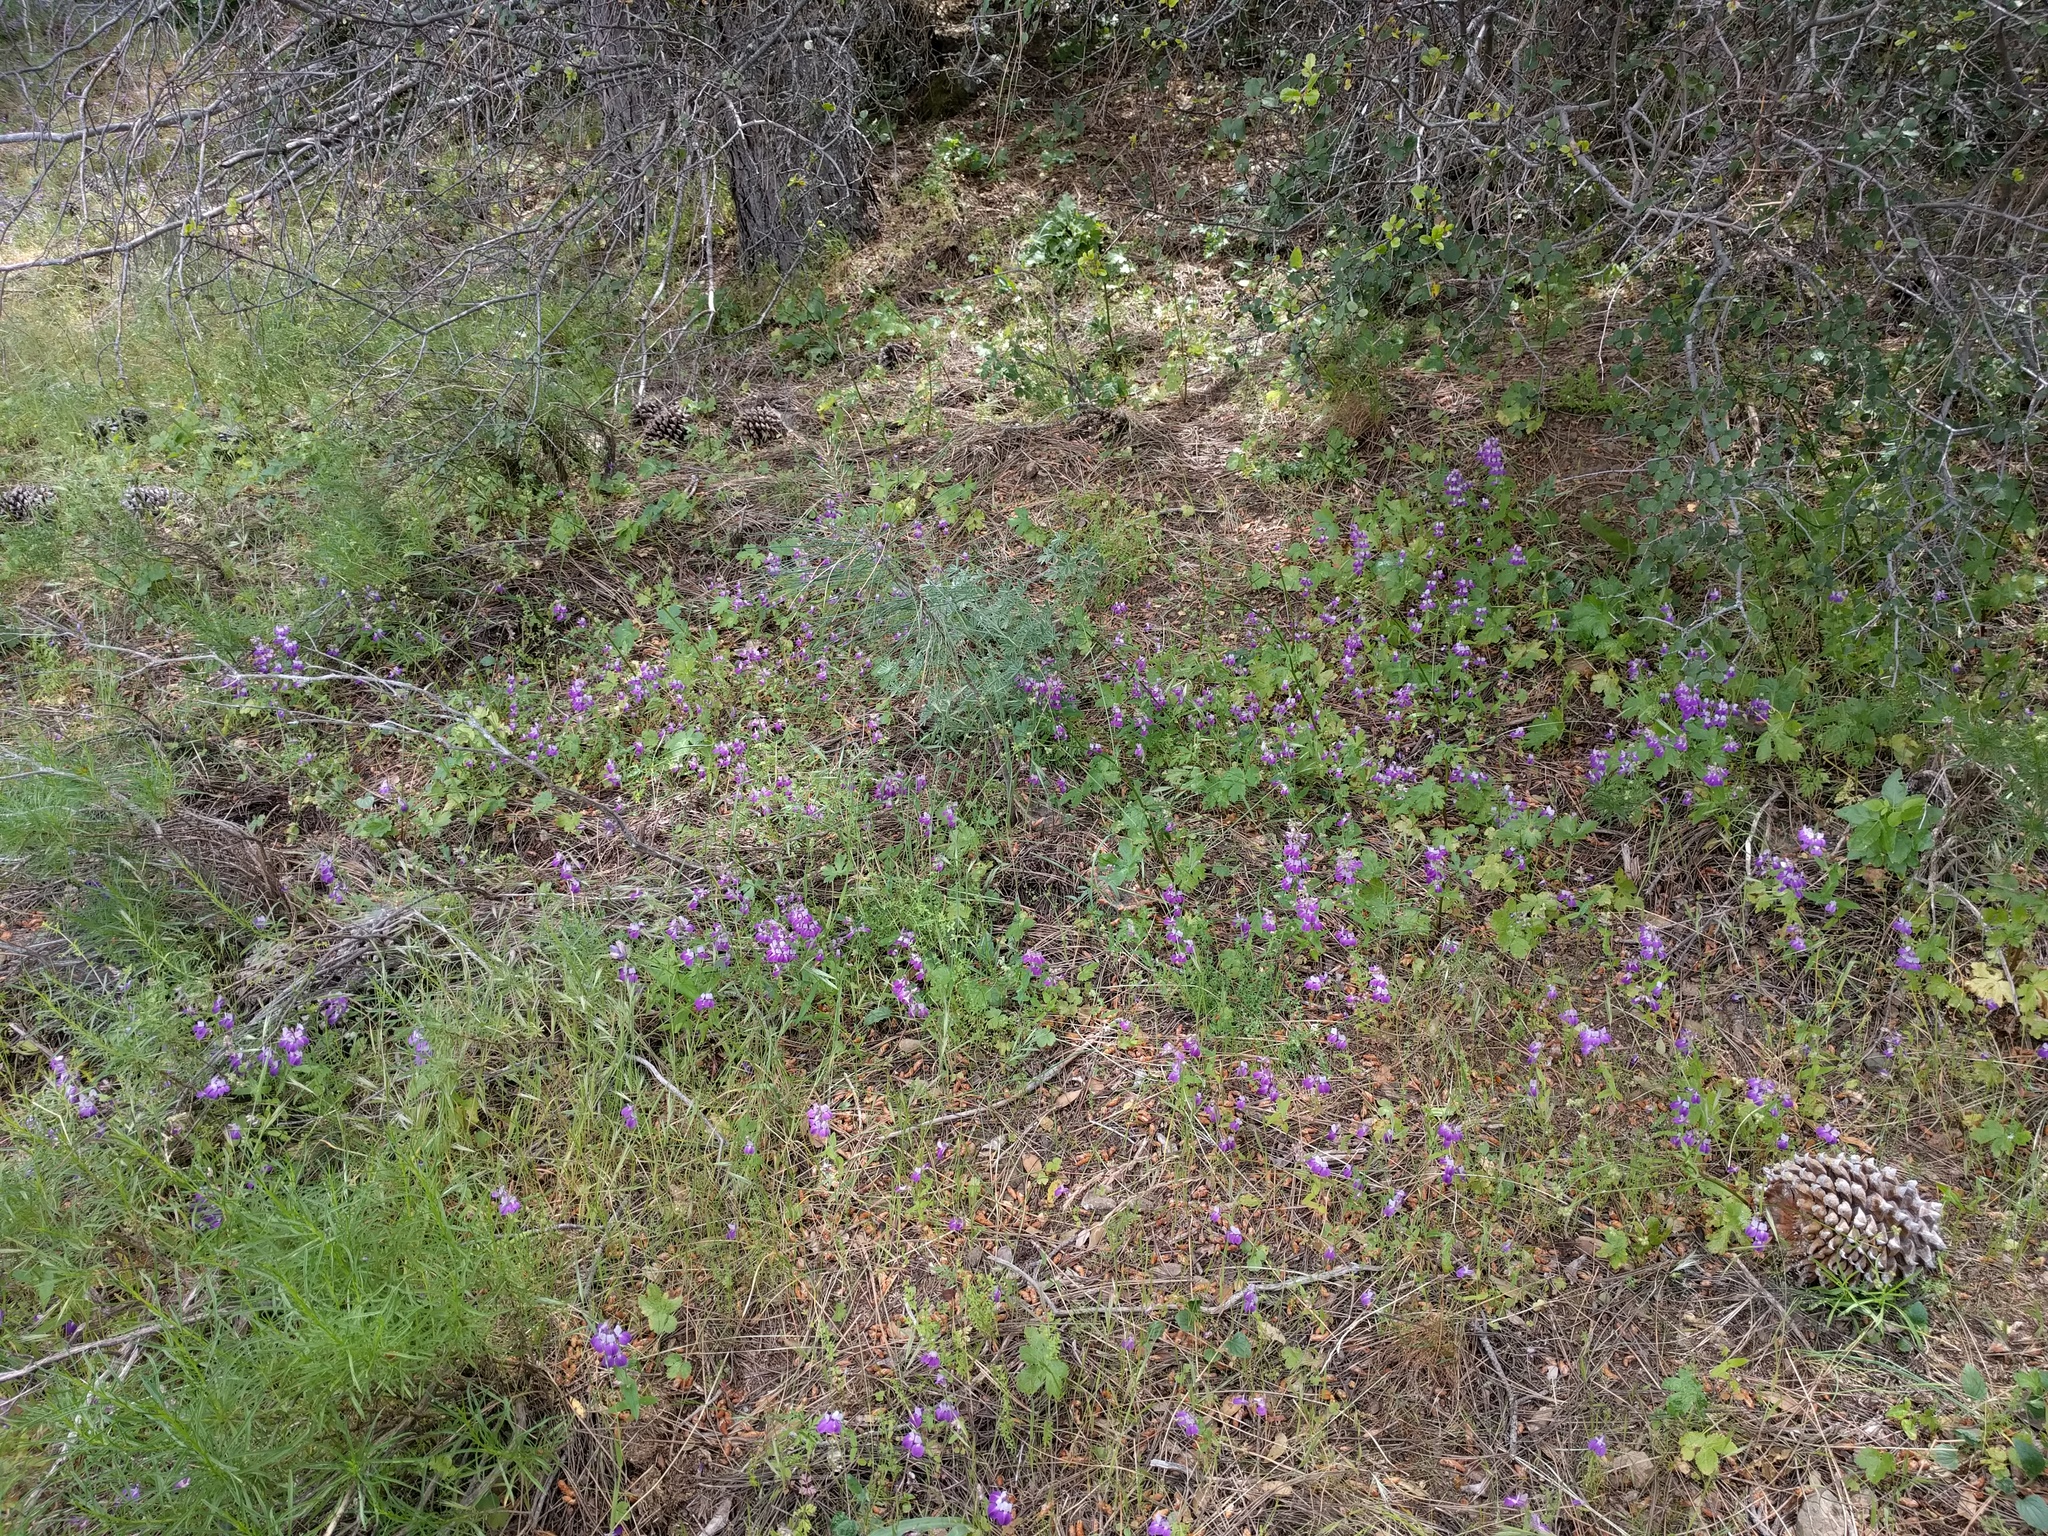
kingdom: Plantae
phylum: Tracheophyta
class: Magnoliopsida
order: Lamiales
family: Plantaginaceae
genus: Collinsia
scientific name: Collinsia heterophylla
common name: Chinese-houses
